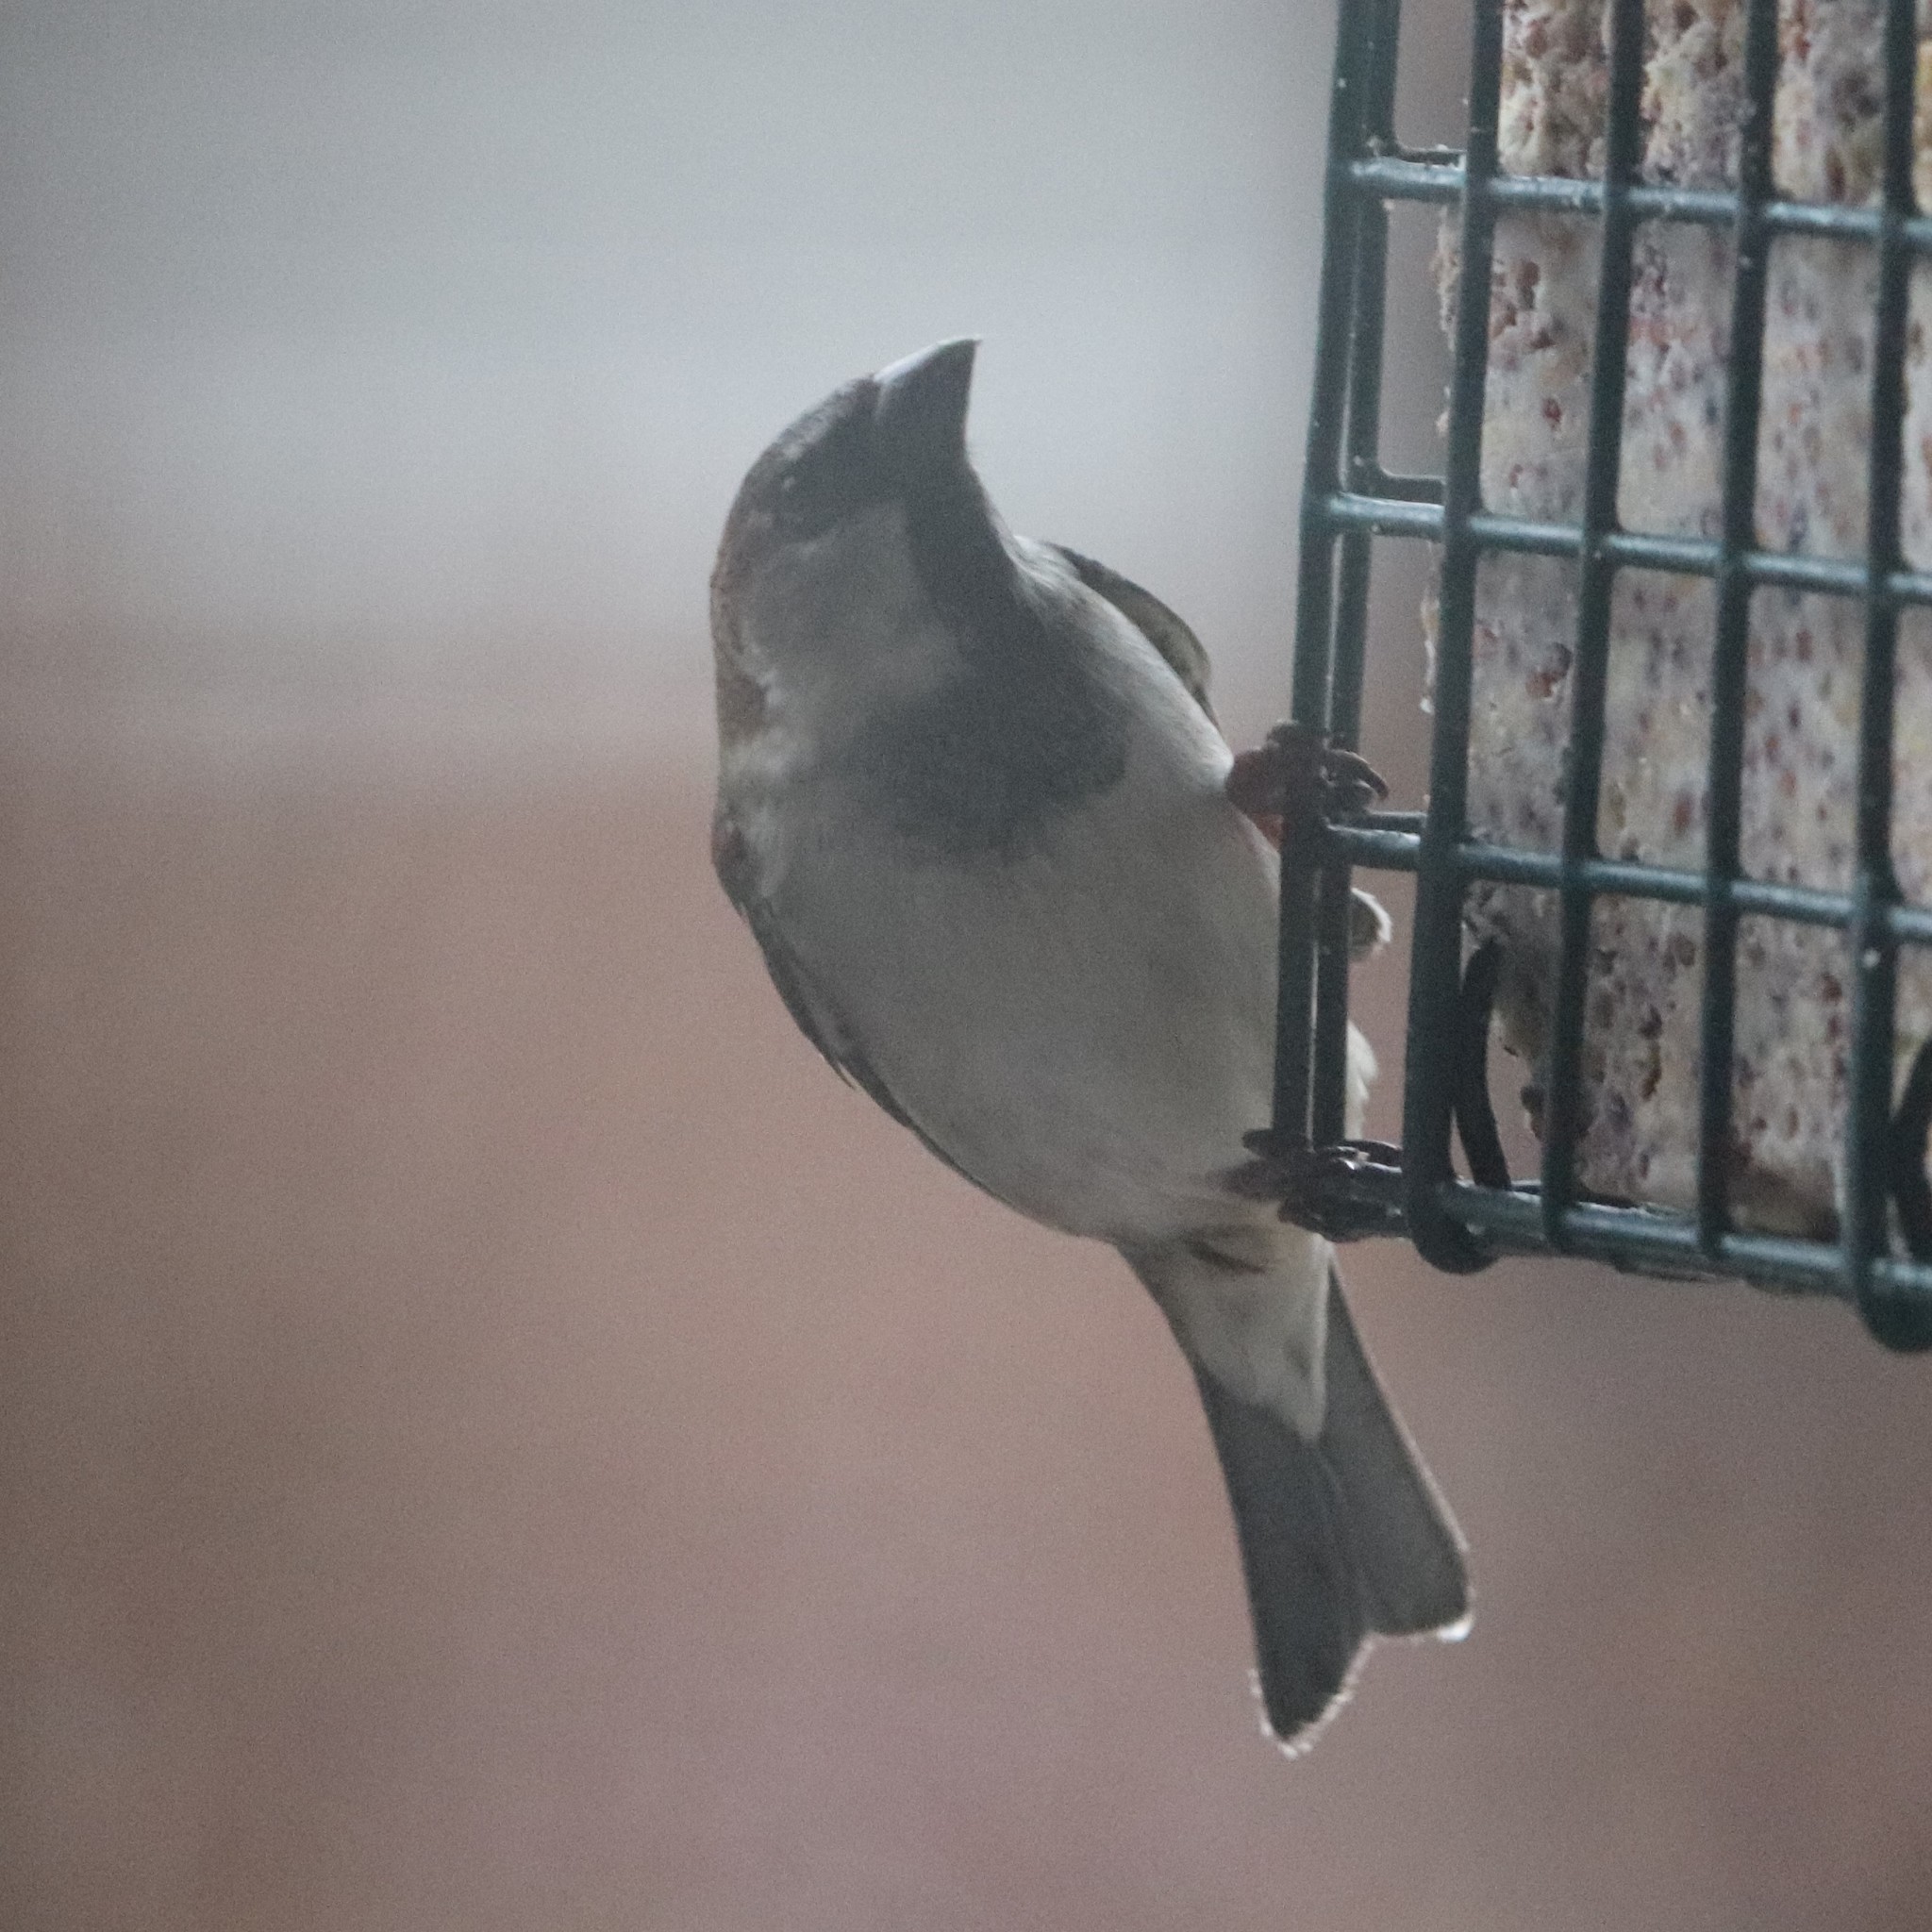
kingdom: Animalia
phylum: Chordata
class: Aves
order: Passeriformes
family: Passeridae
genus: Passer
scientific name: Passer domesticus
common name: House sparrow
